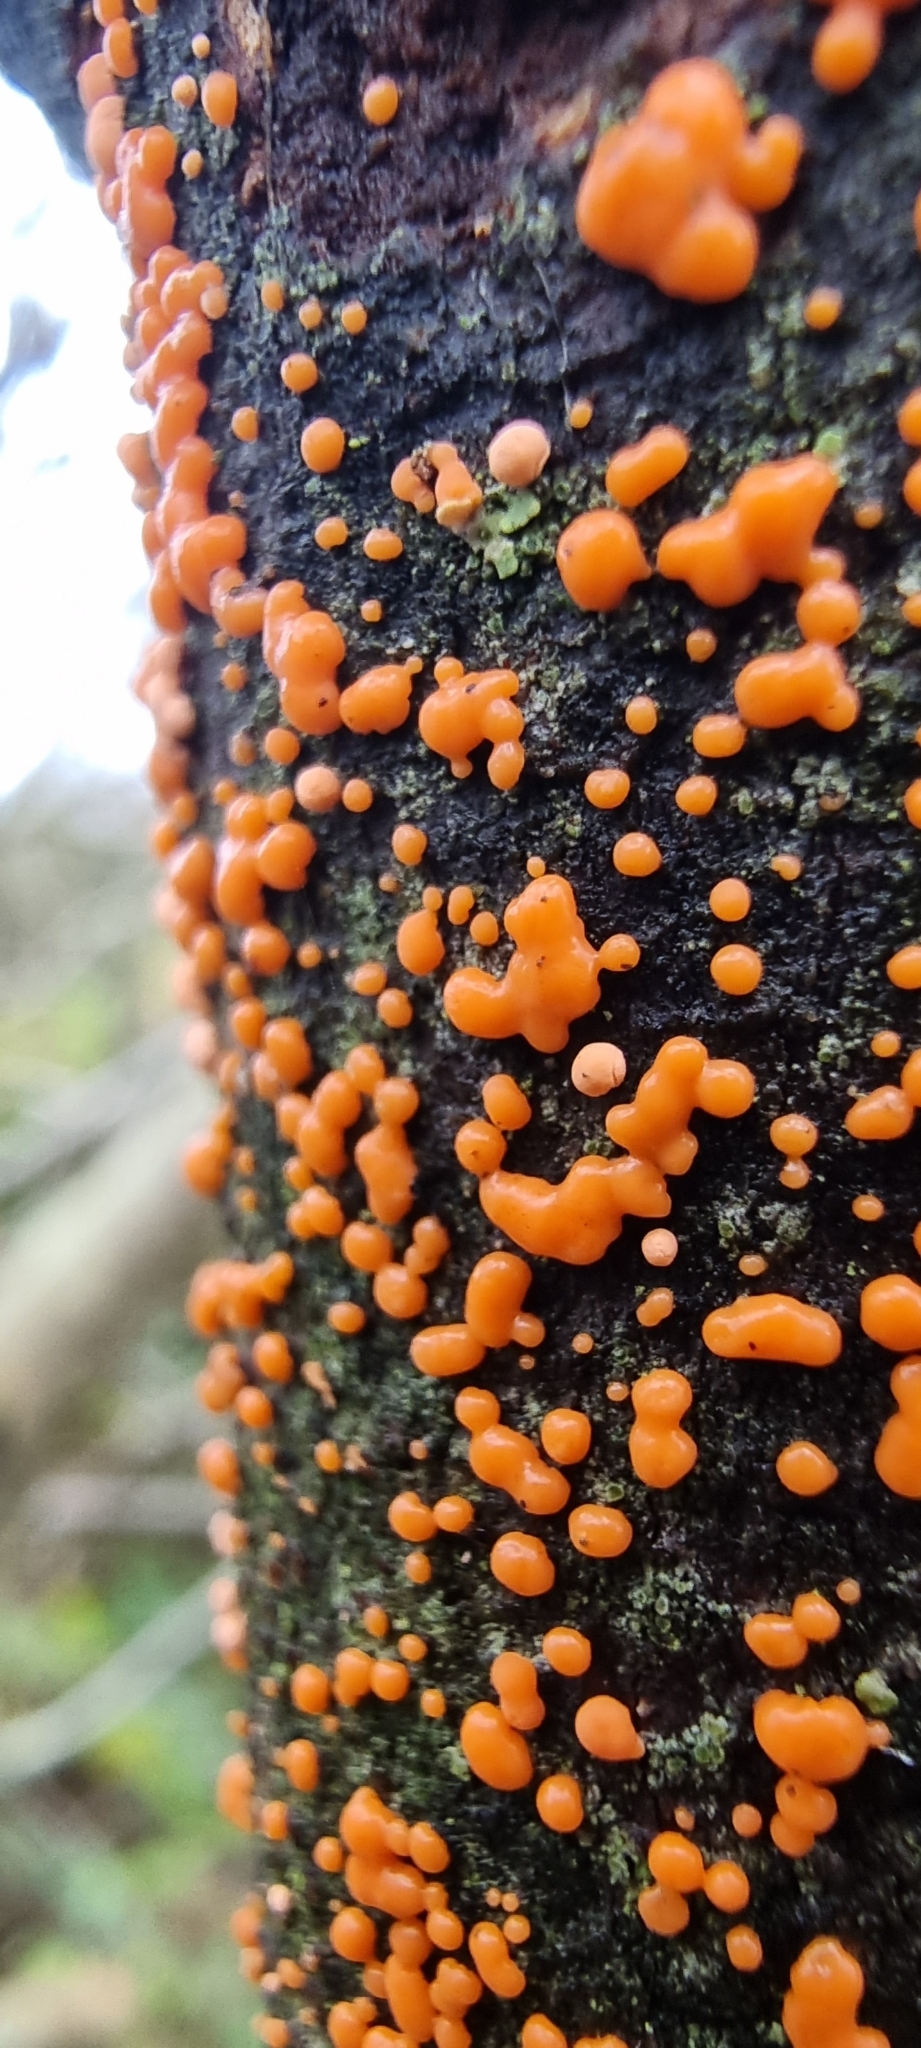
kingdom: Fungi
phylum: Ascomycota
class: Sordariomycetes
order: Hypocreales
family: Nectriaceae
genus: Nectria
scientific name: Nectria cinnabarina
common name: Coral spot
